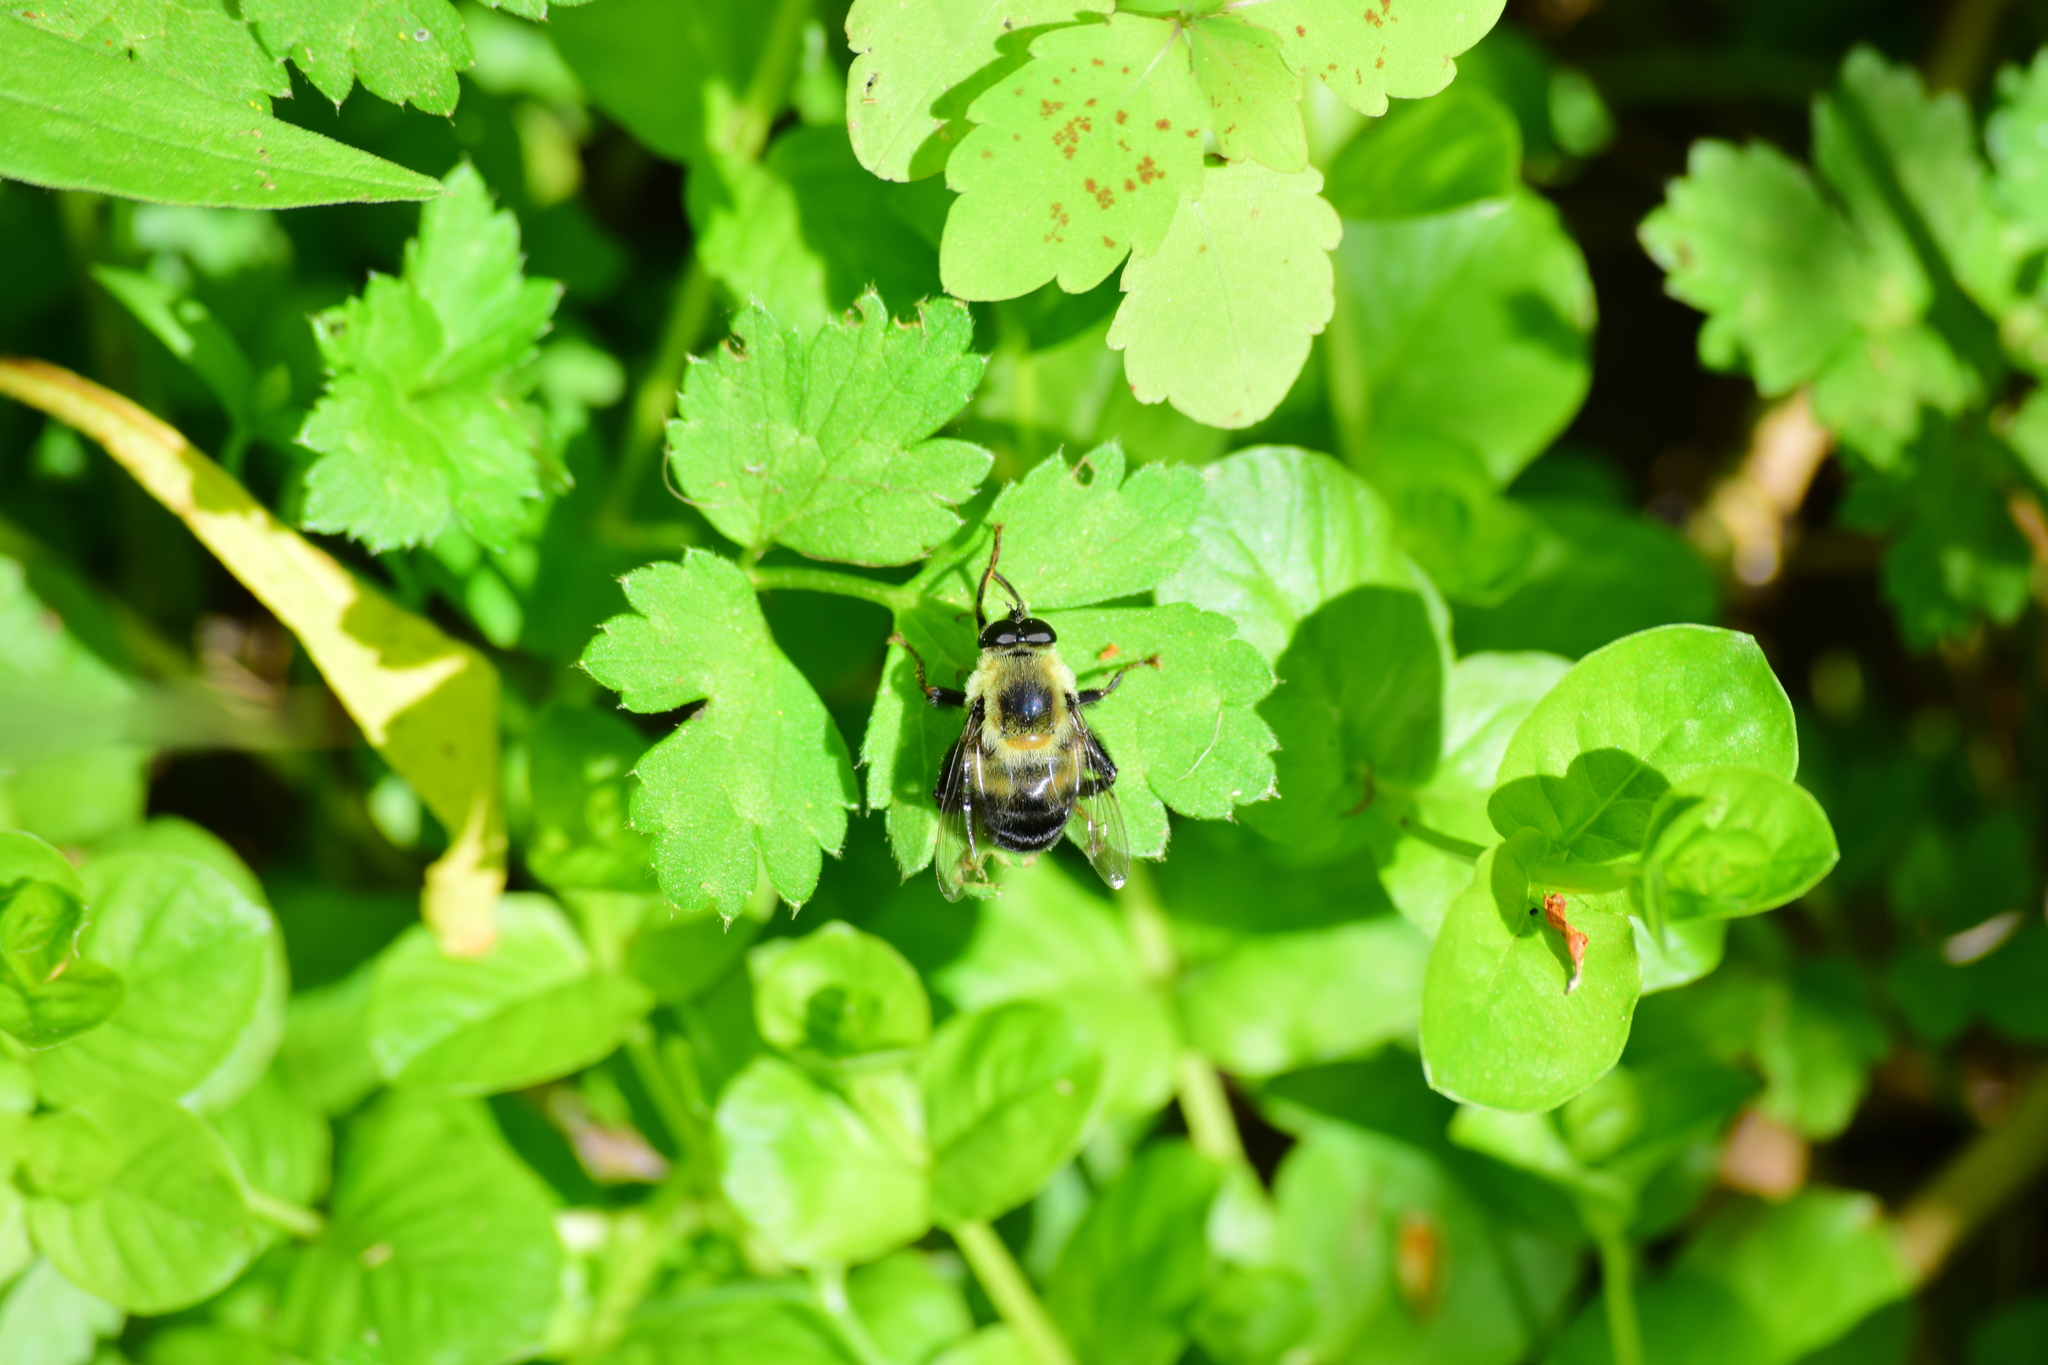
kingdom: Animalia
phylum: Arthropoda
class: Insecta
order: Diptera
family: Syrphidae
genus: Imatisma
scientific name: Imatisma posticata
